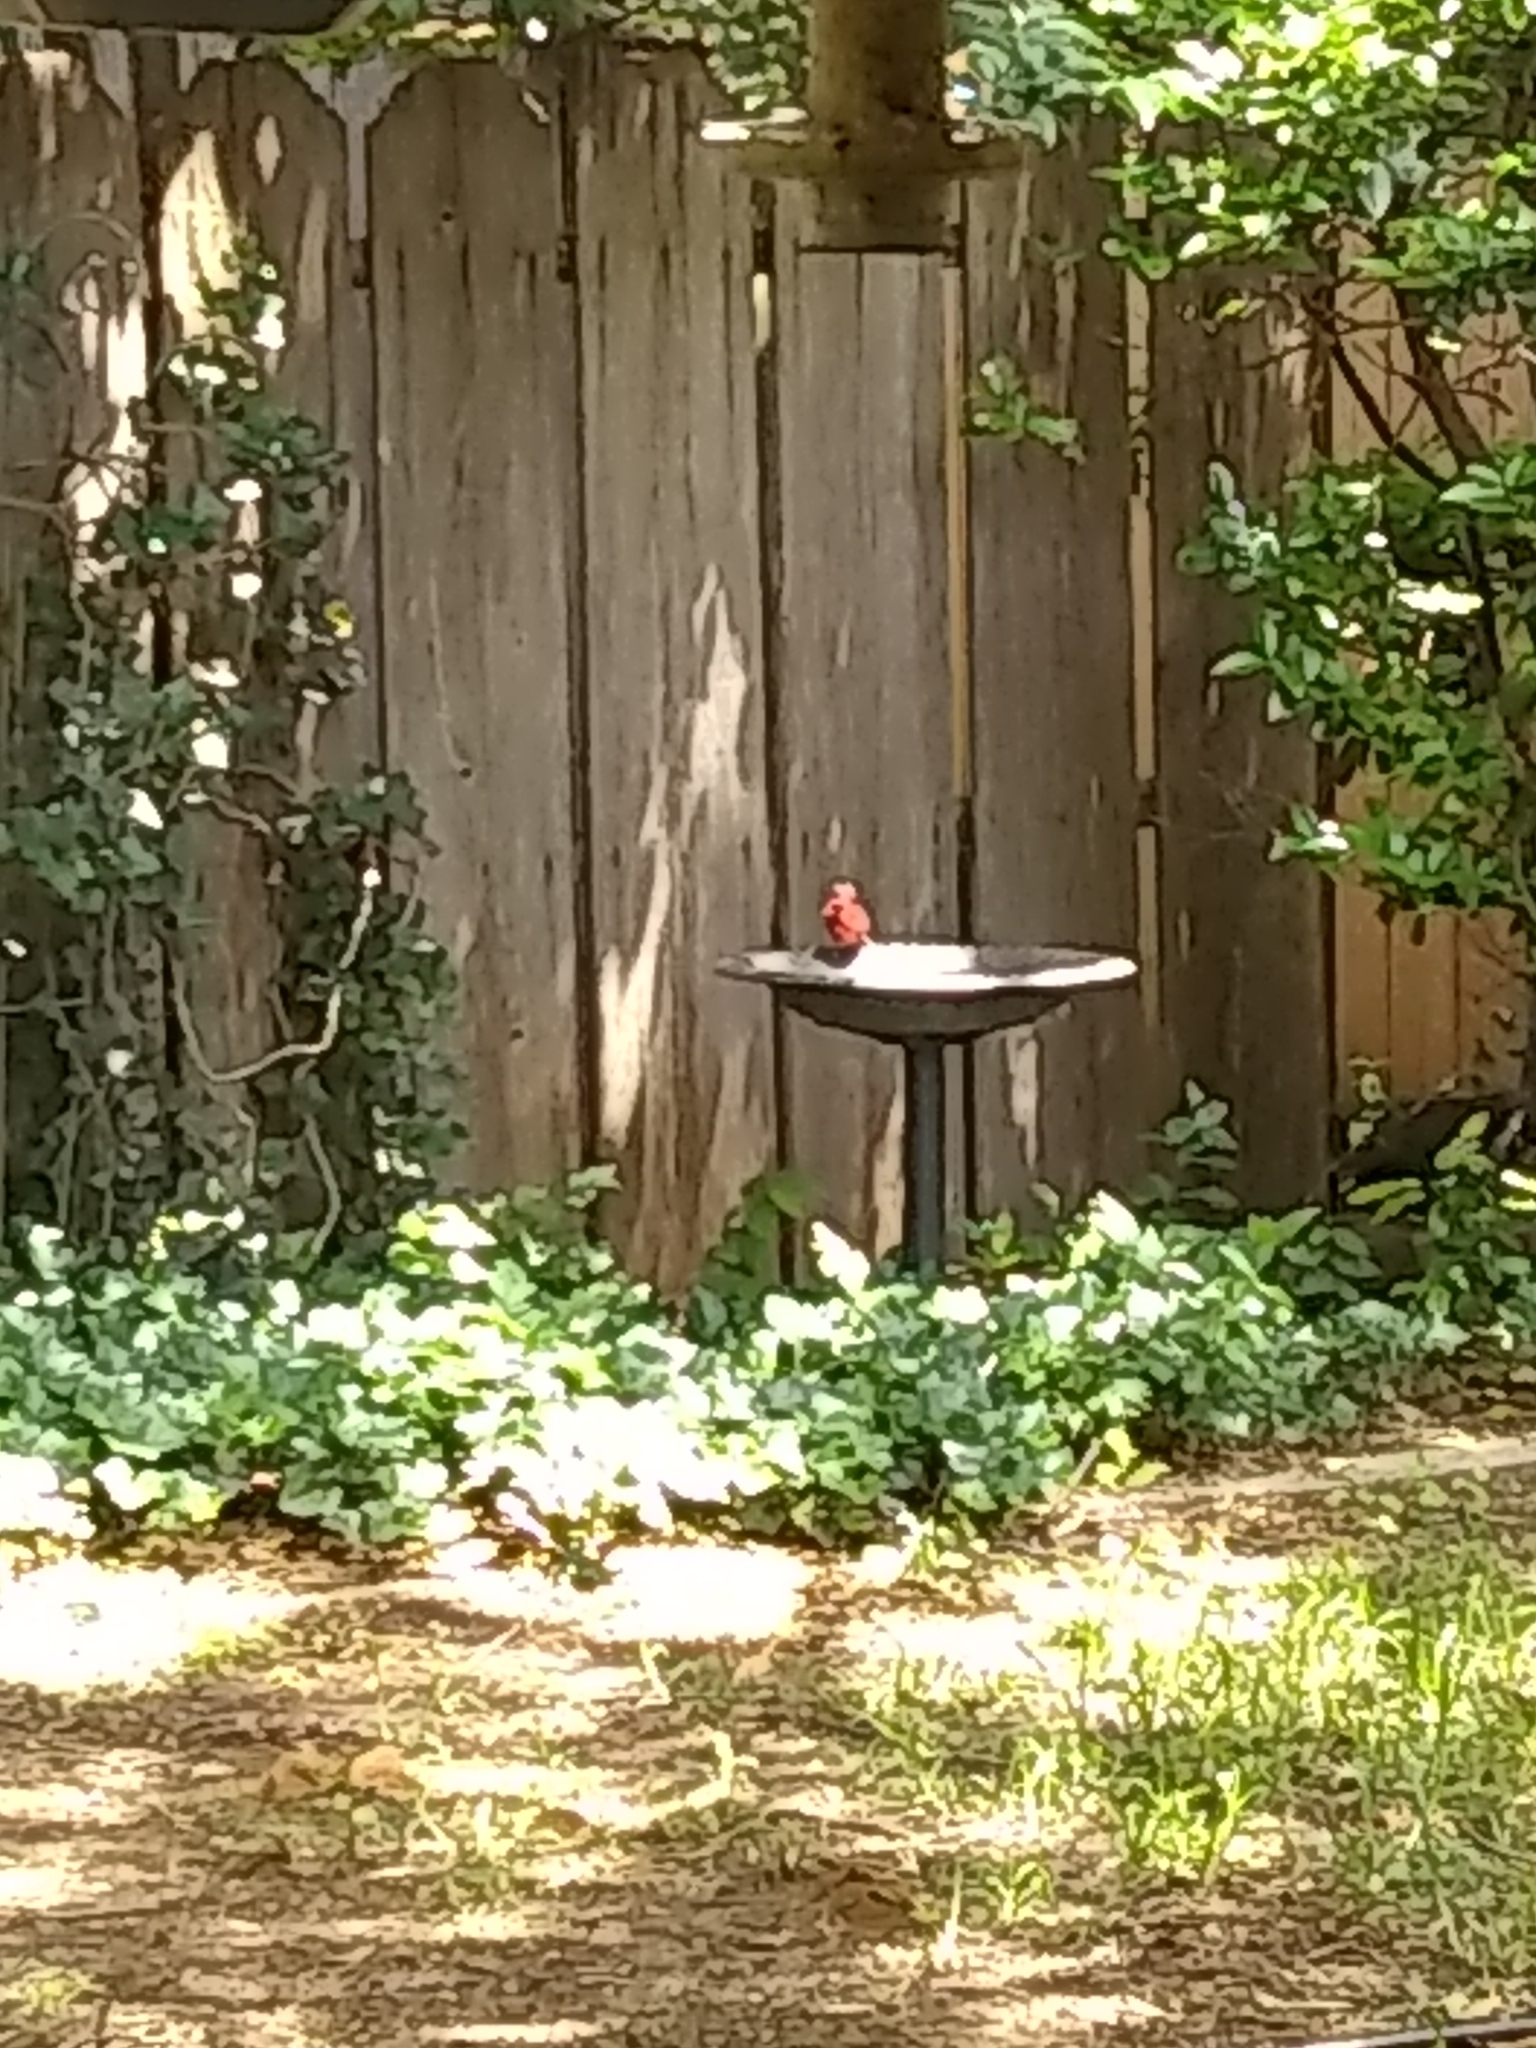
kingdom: Animalia
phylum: Chordata
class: Aves
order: Passeriformes
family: Cardinalidae
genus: Cardinalis
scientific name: Cardinalis cardinalis
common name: Northern cardinal
